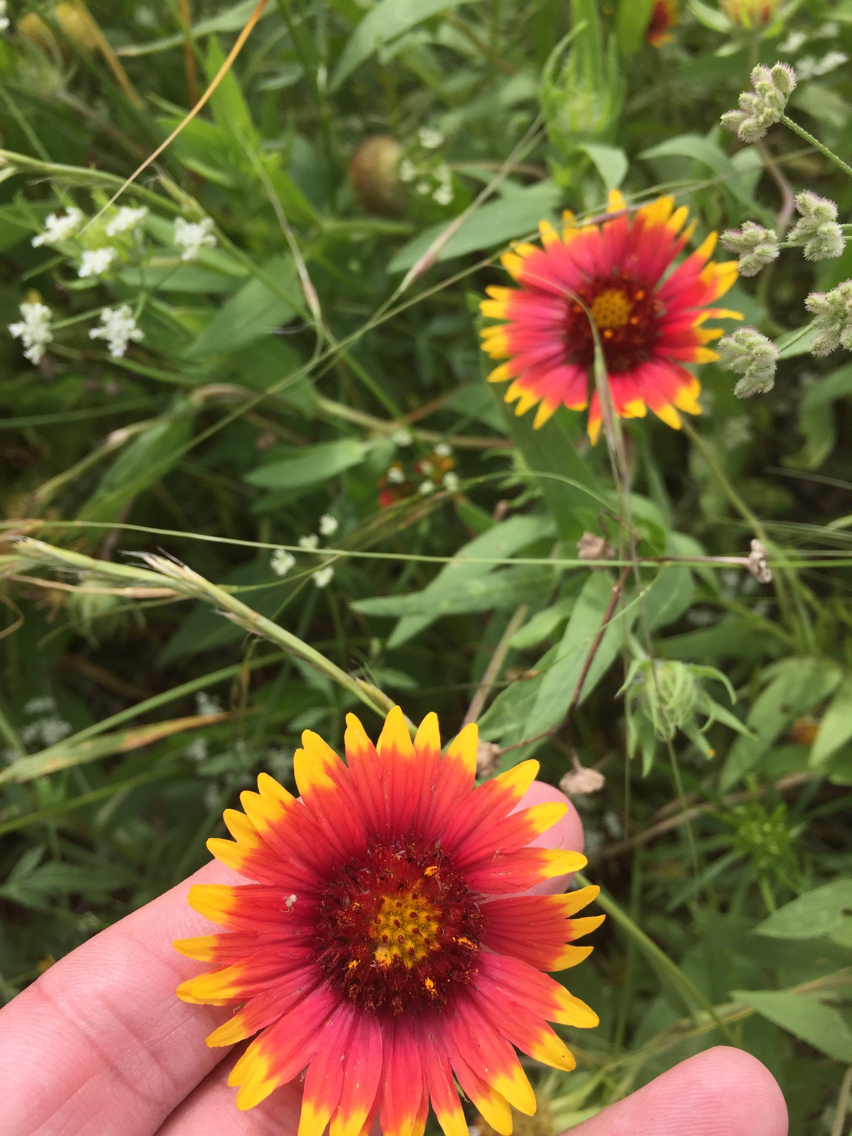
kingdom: Plantae
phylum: Tracheophyta
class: Magnoliopsida
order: Asterales
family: Asteraceae
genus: Gaillardia
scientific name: Gaillardia pulchella
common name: Firewheel
